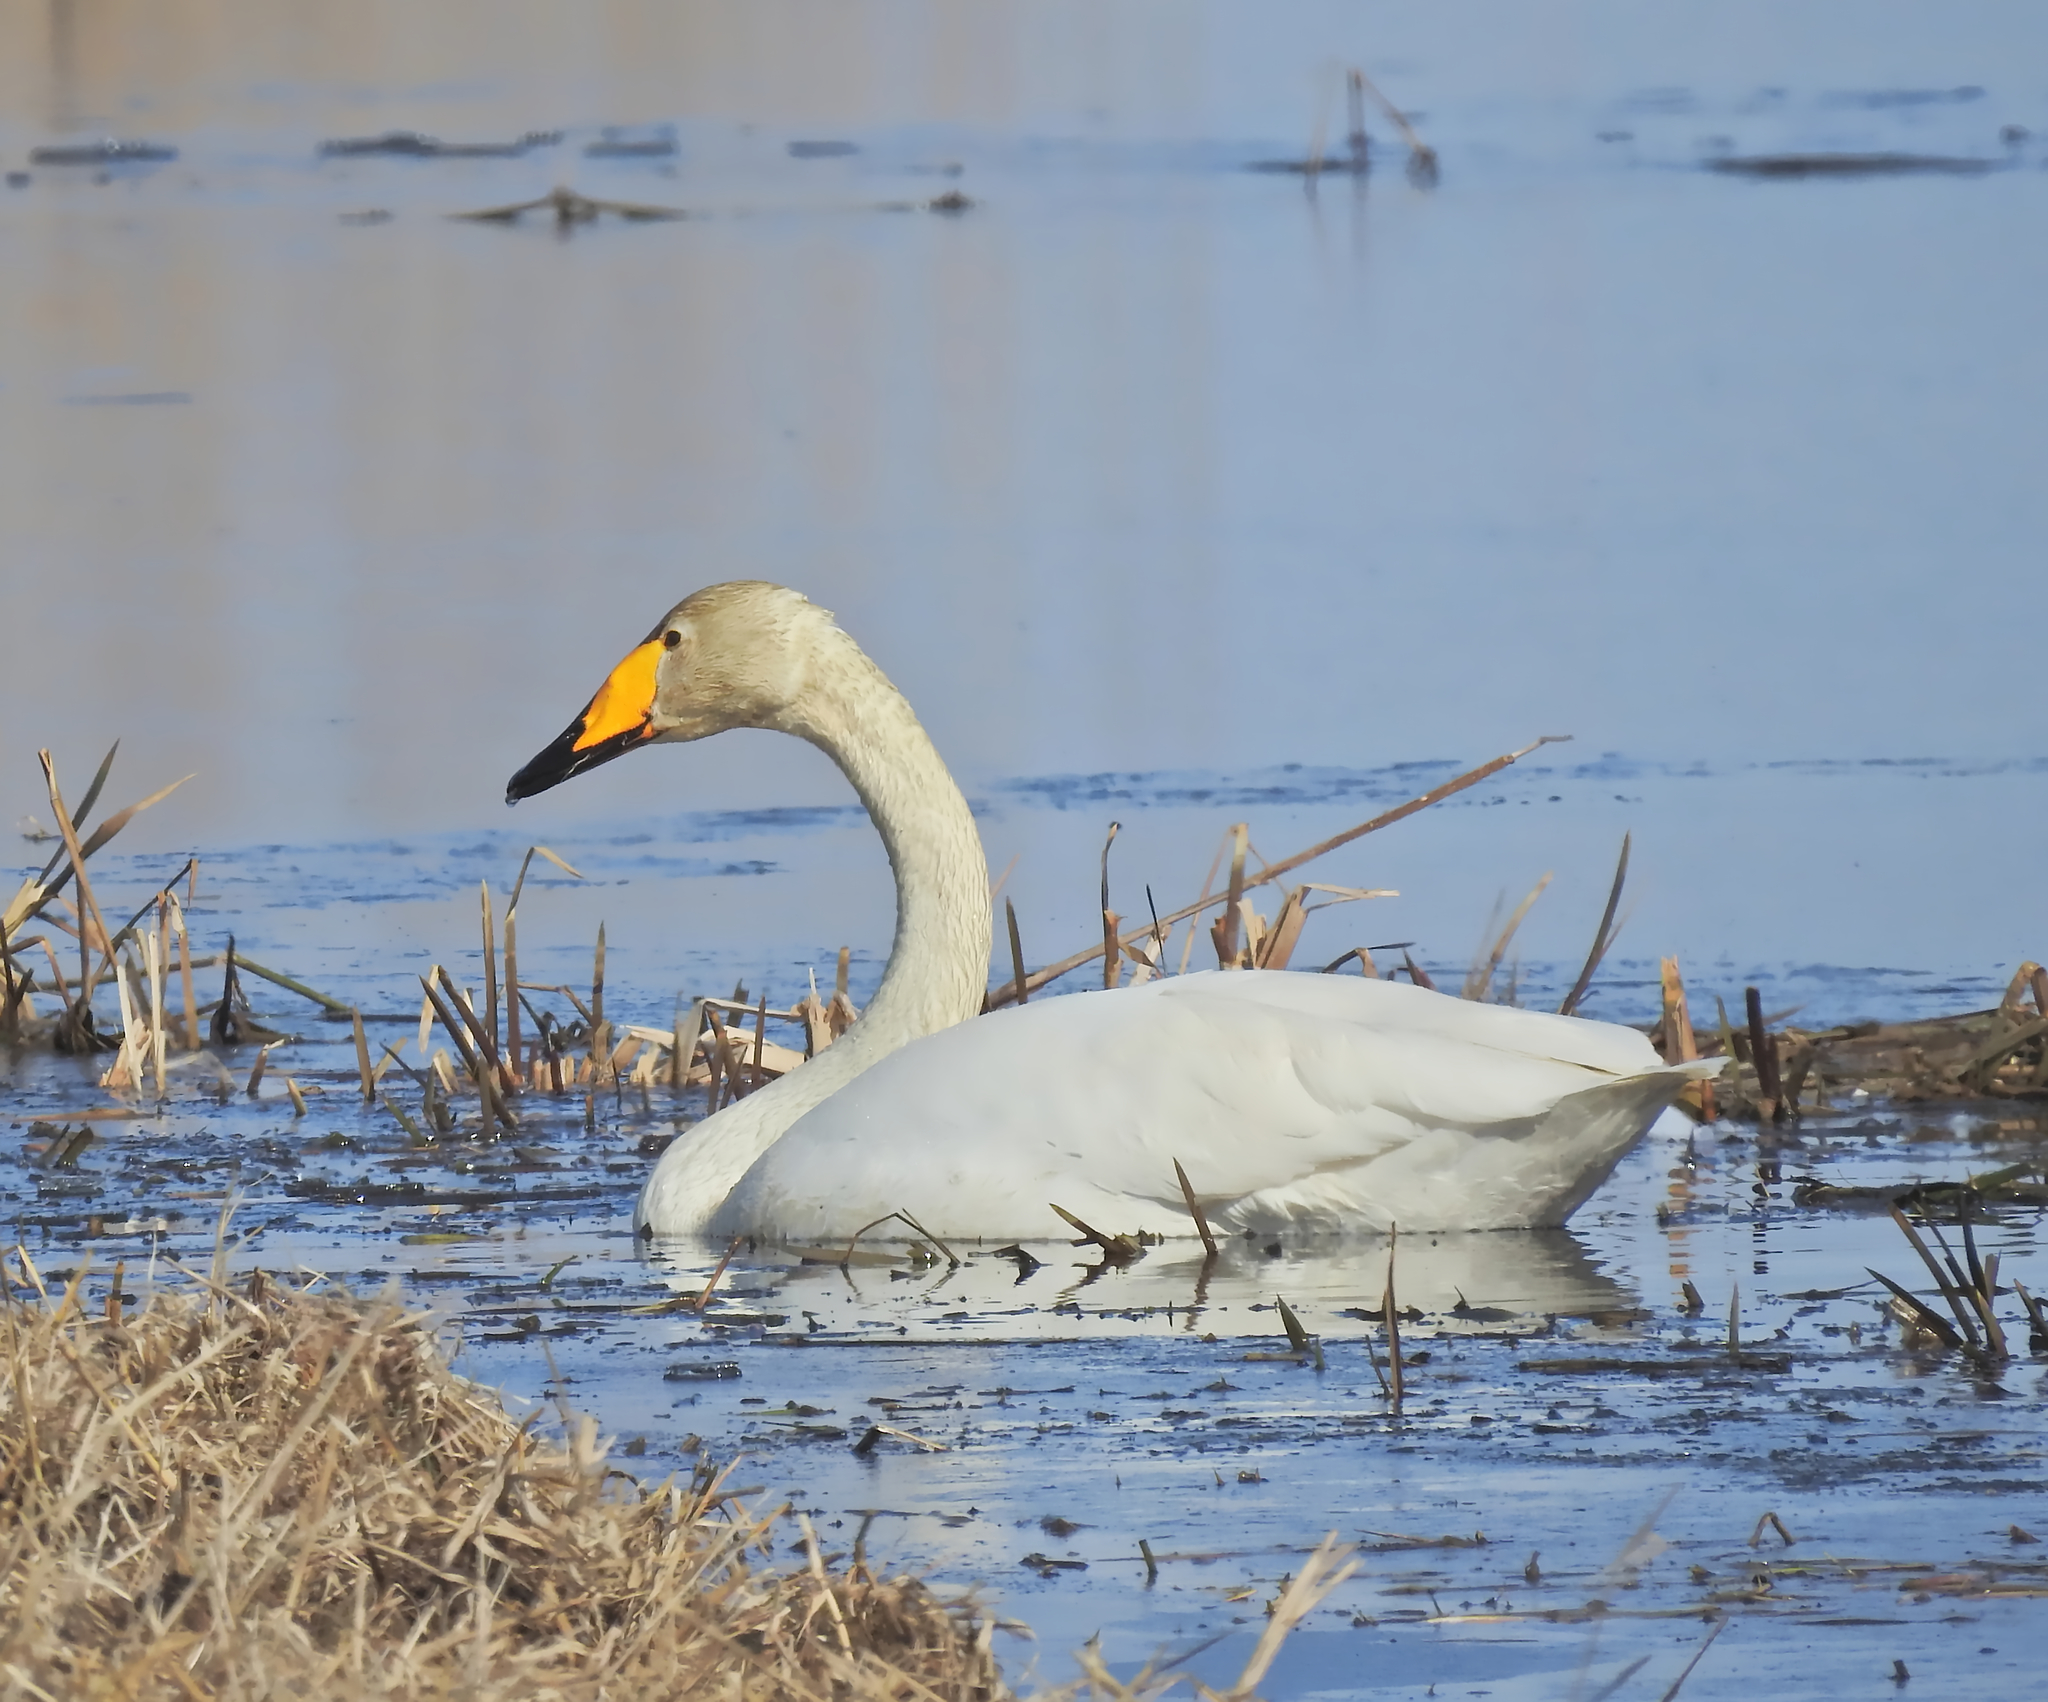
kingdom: Animalia
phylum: Chordata
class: Aves
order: Anseriformes
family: Anatidae
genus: Cygnus
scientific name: Cygnus cygnus
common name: Whooper swan
